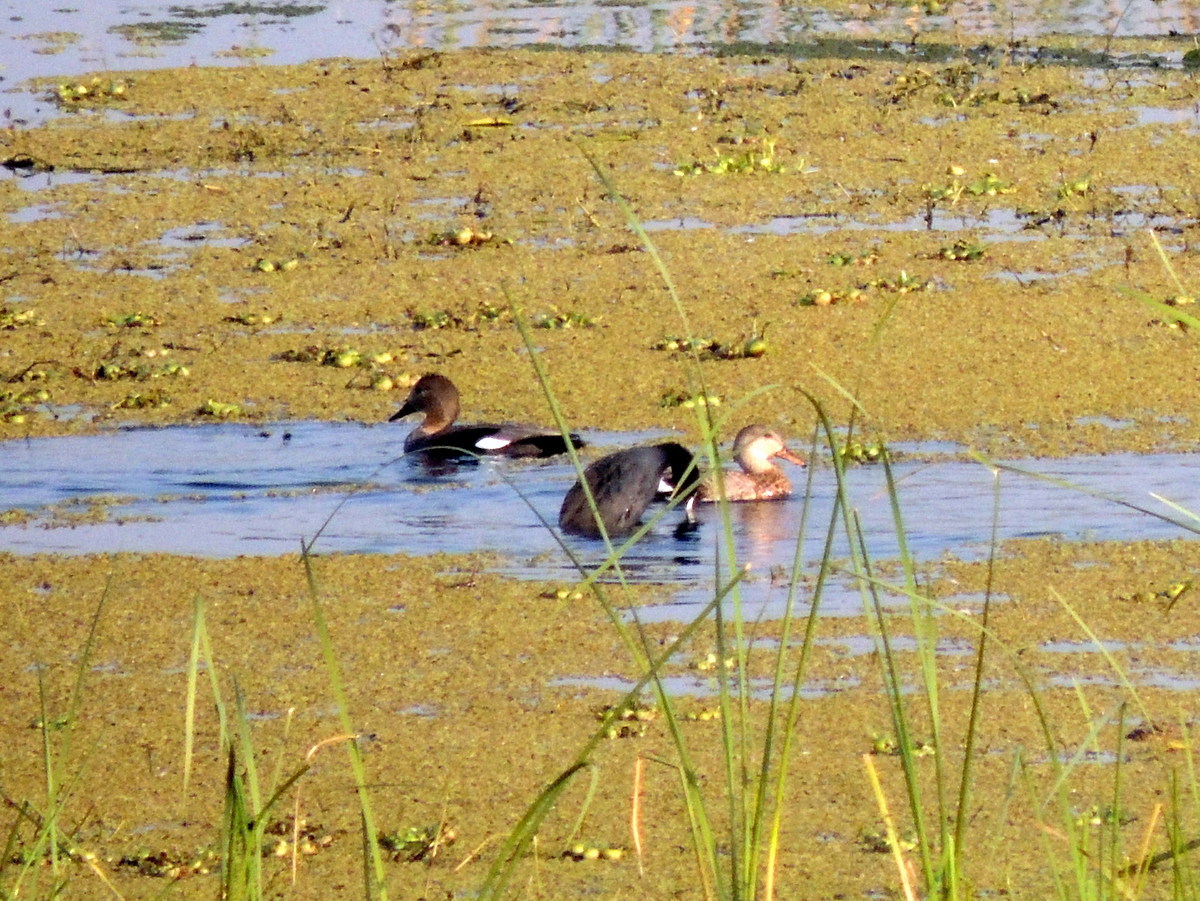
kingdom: Animalia
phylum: Chordata
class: Aves
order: Anseriformes
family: Anatidae
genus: Mareca
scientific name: Mareca strepera
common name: Gadwall
